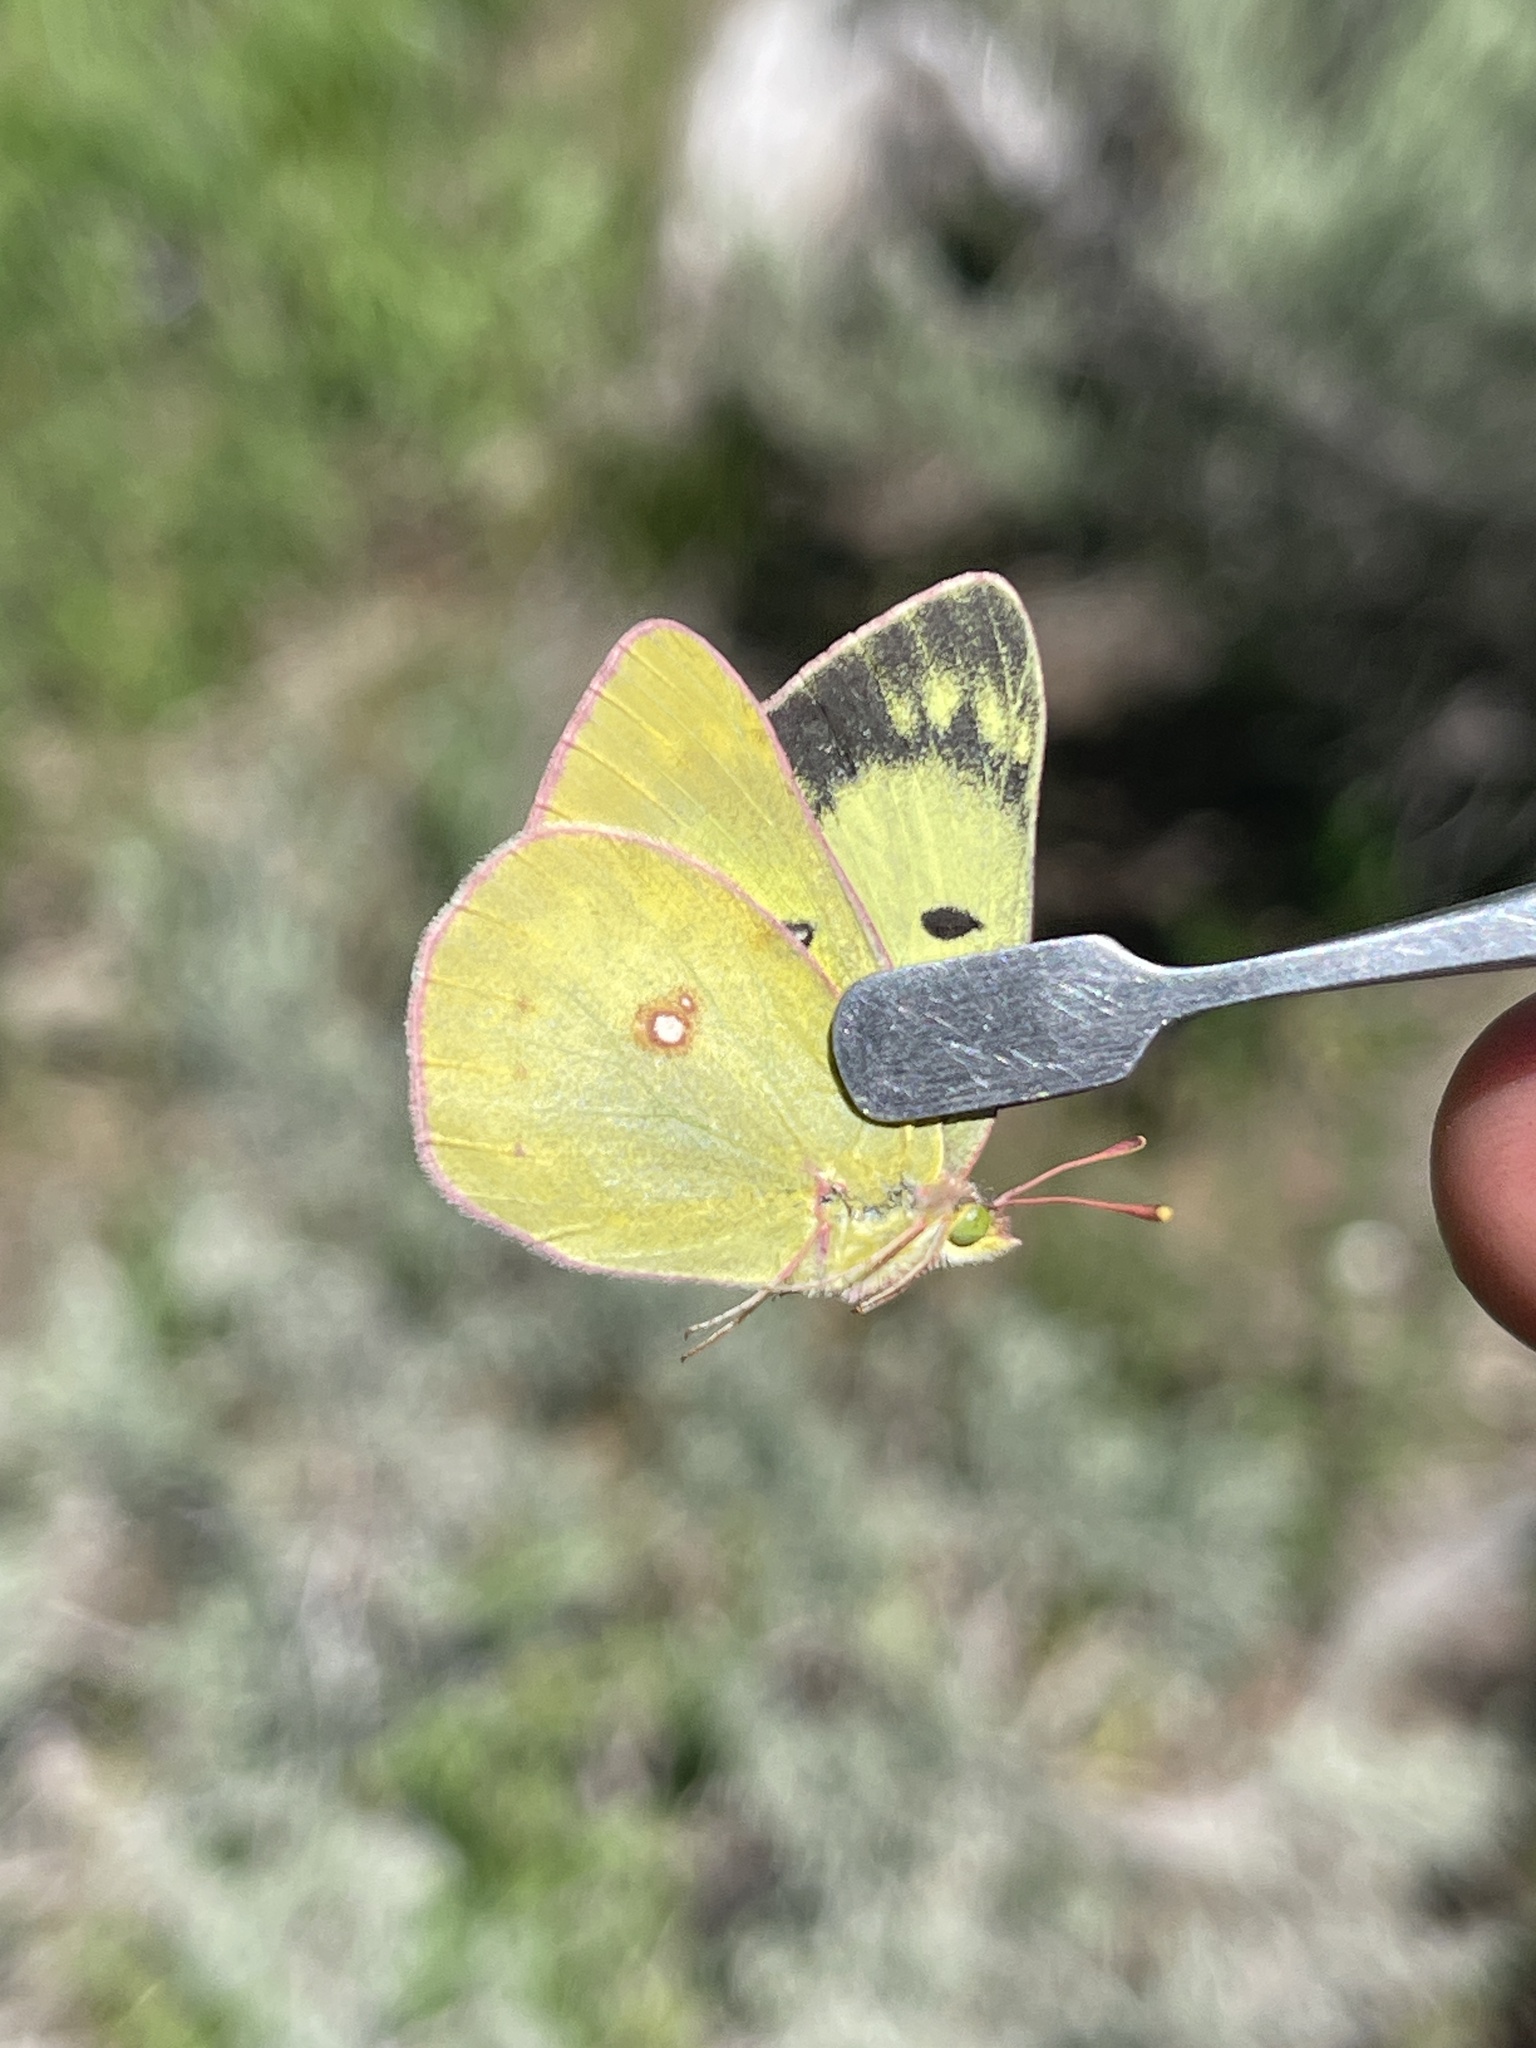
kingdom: Animalia
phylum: Arthropoda
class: Insecta
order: Lepidoptera
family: Pieridae
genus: Colias
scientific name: Colias philodice
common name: Clouded sulphur
